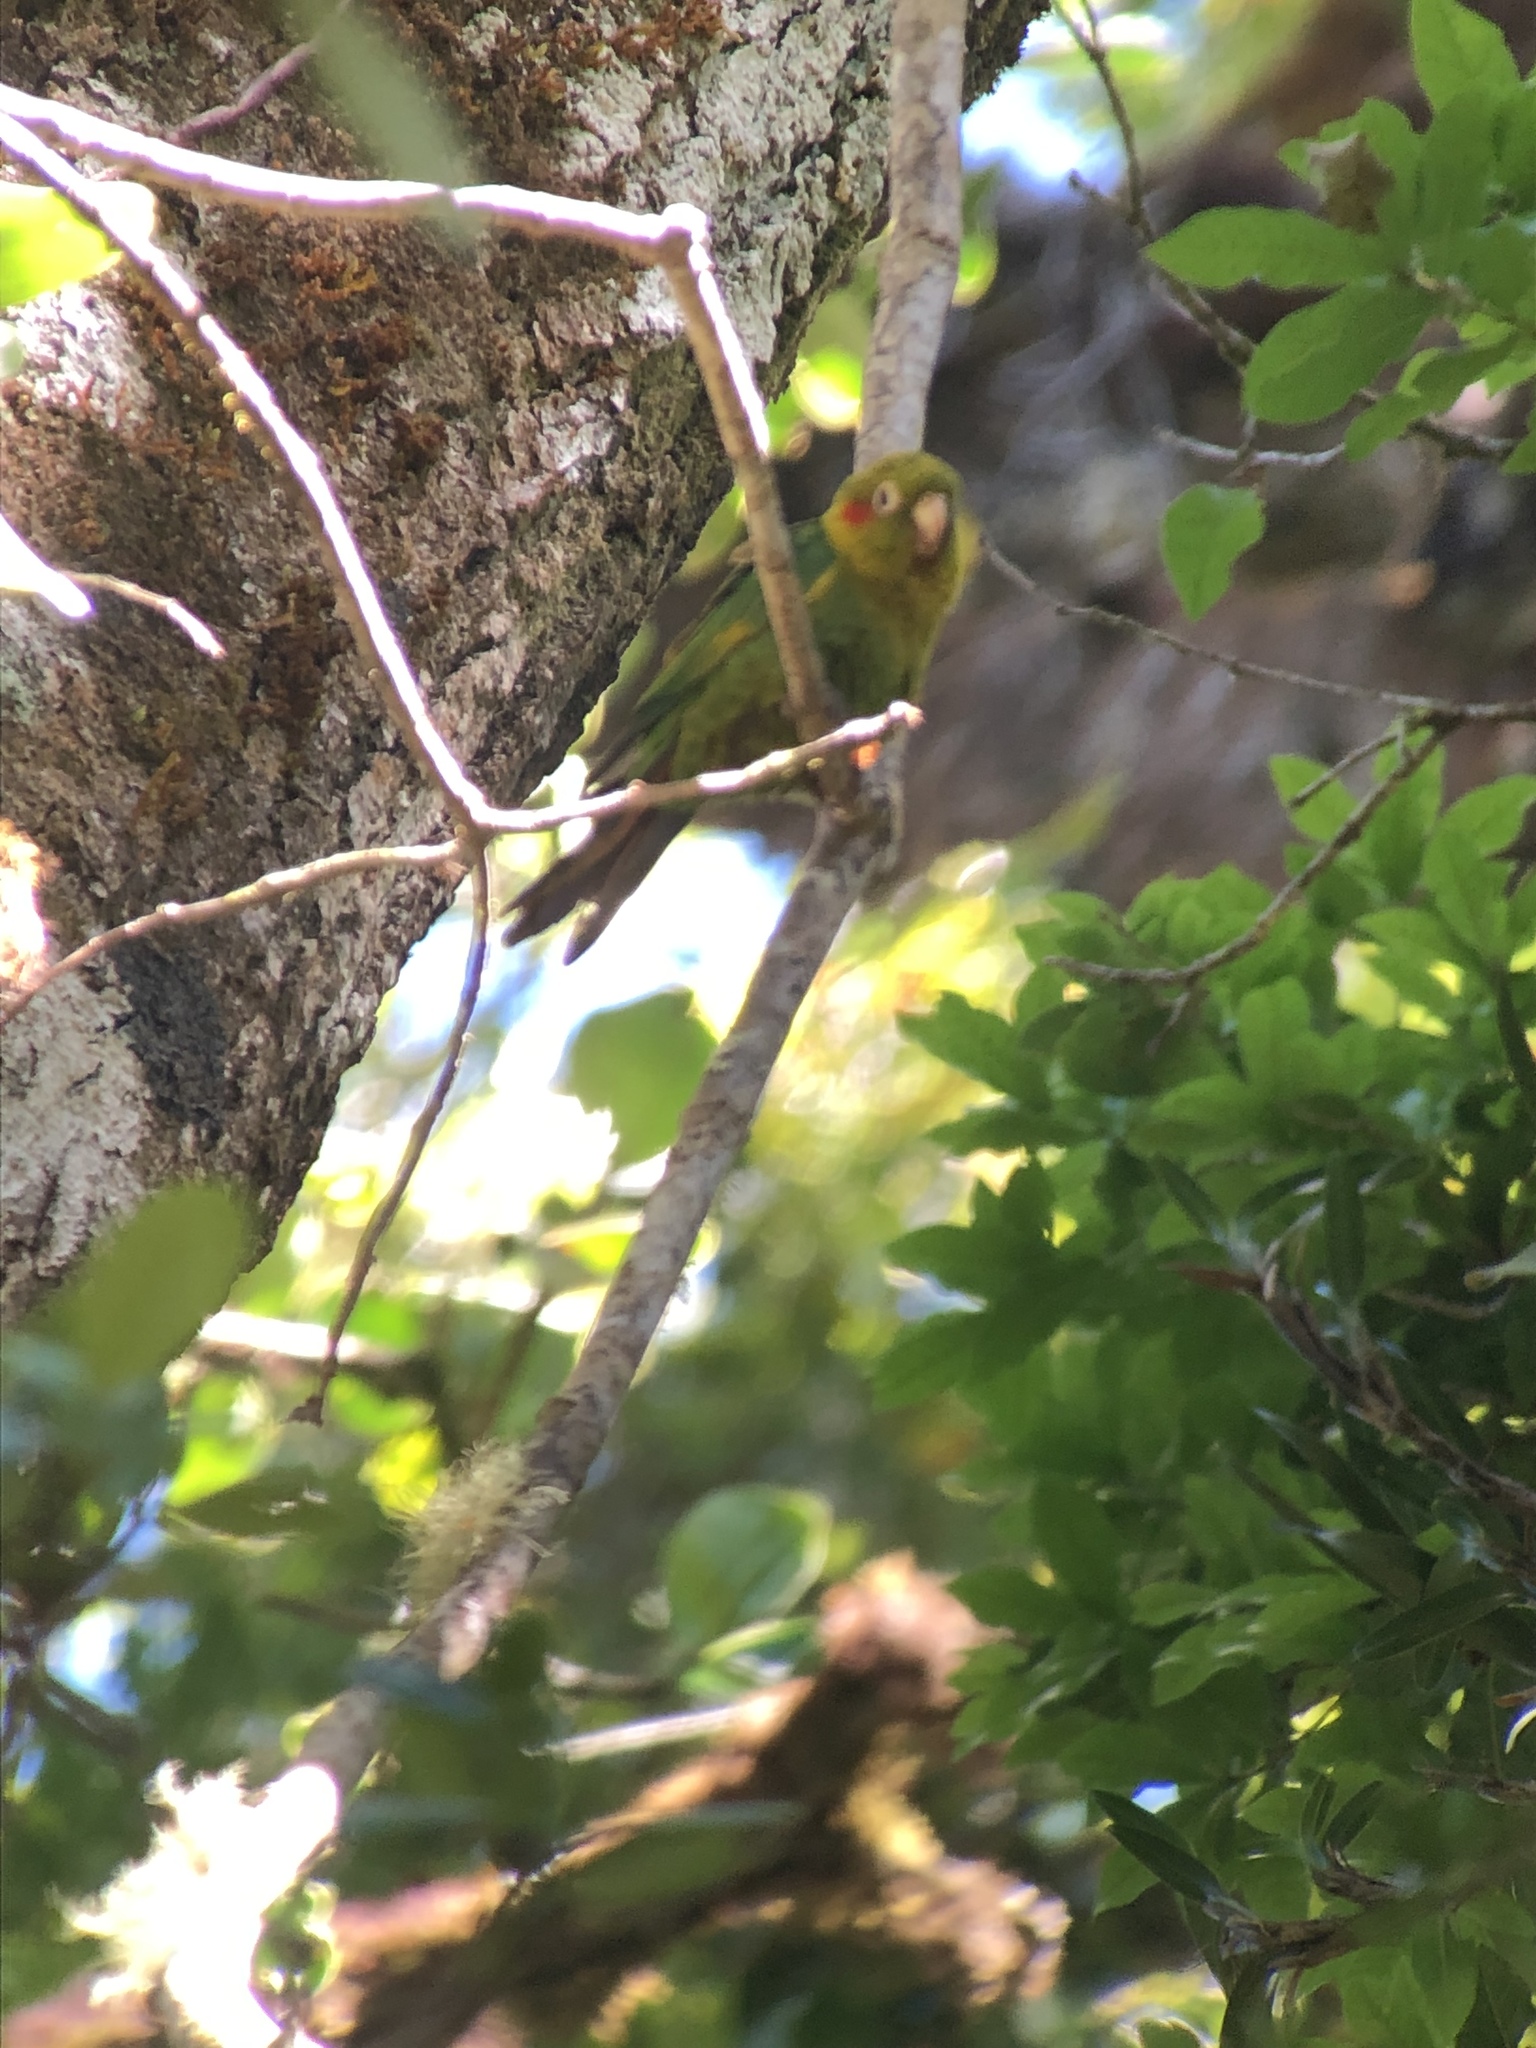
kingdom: Animalia
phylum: Chordata
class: Aves
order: Psittaciformes
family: Psittacidae
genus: Pyrrhura
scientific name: Pyrrhura hoffmanni
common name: Sulphur-winged parakeet
